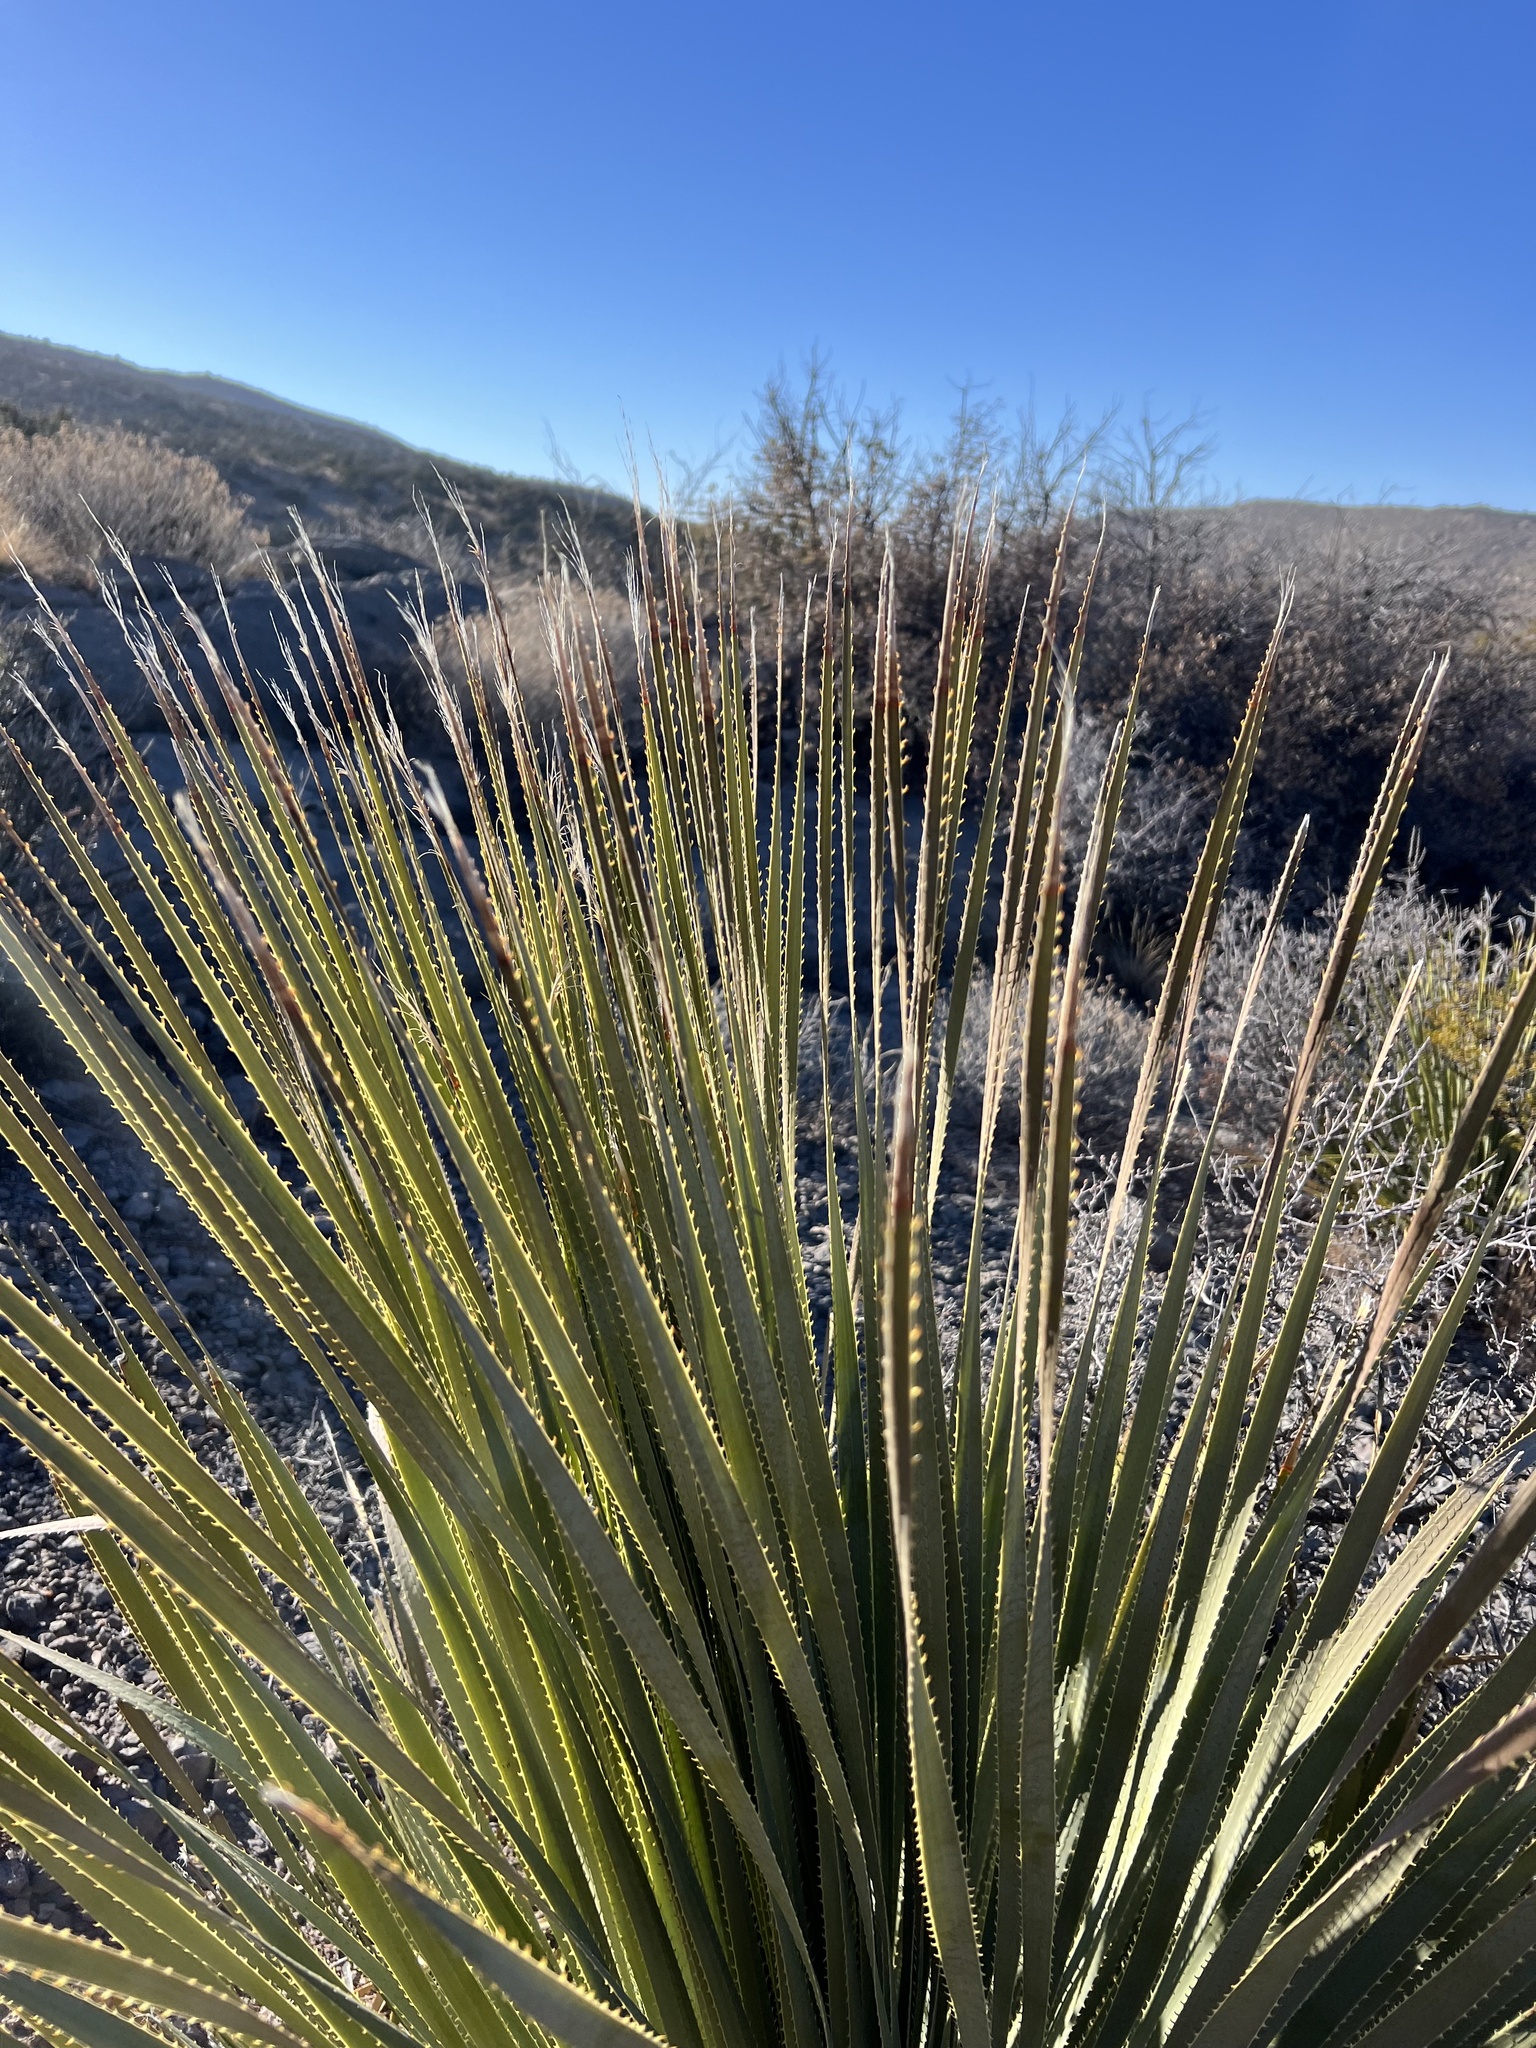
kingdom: Plantae
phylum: Tracheophyta
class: Liliopsida
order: Asparagales
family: Asparagaceae
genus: Dasylirion
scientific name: Dasylirion wheeleri
